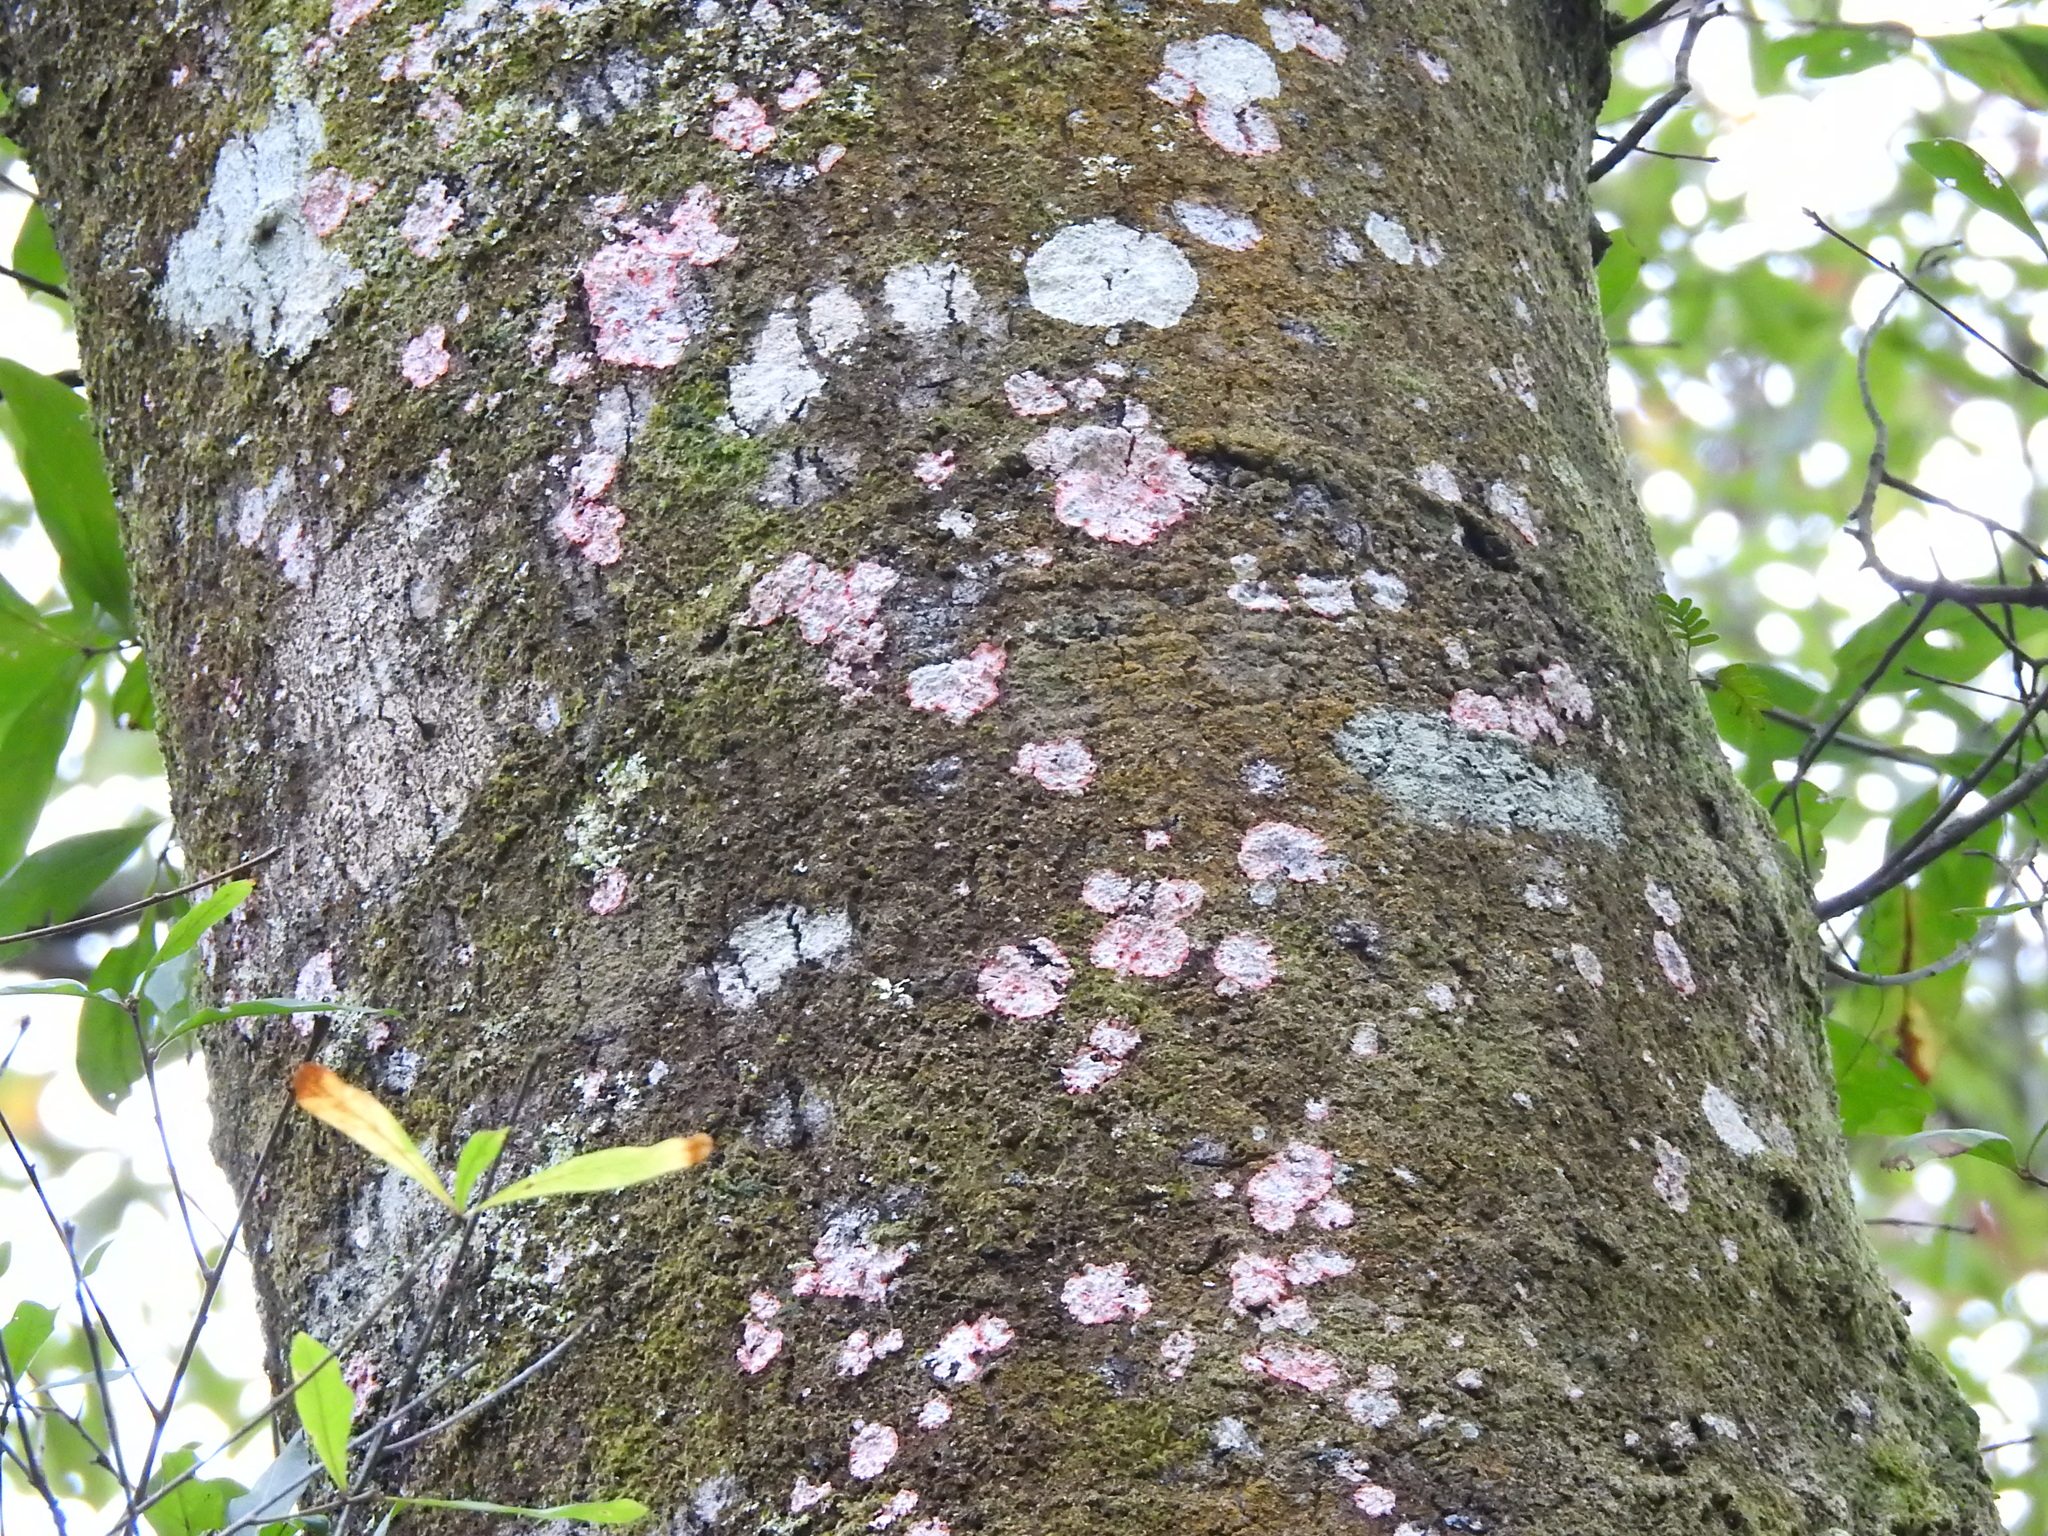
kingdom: Fungi
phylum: Ascomycota
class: Arthoniomycetes
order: Arthoniales
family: Arthoniaceae
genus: Herpothallon
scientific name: Herpothallon rubrocinctum
